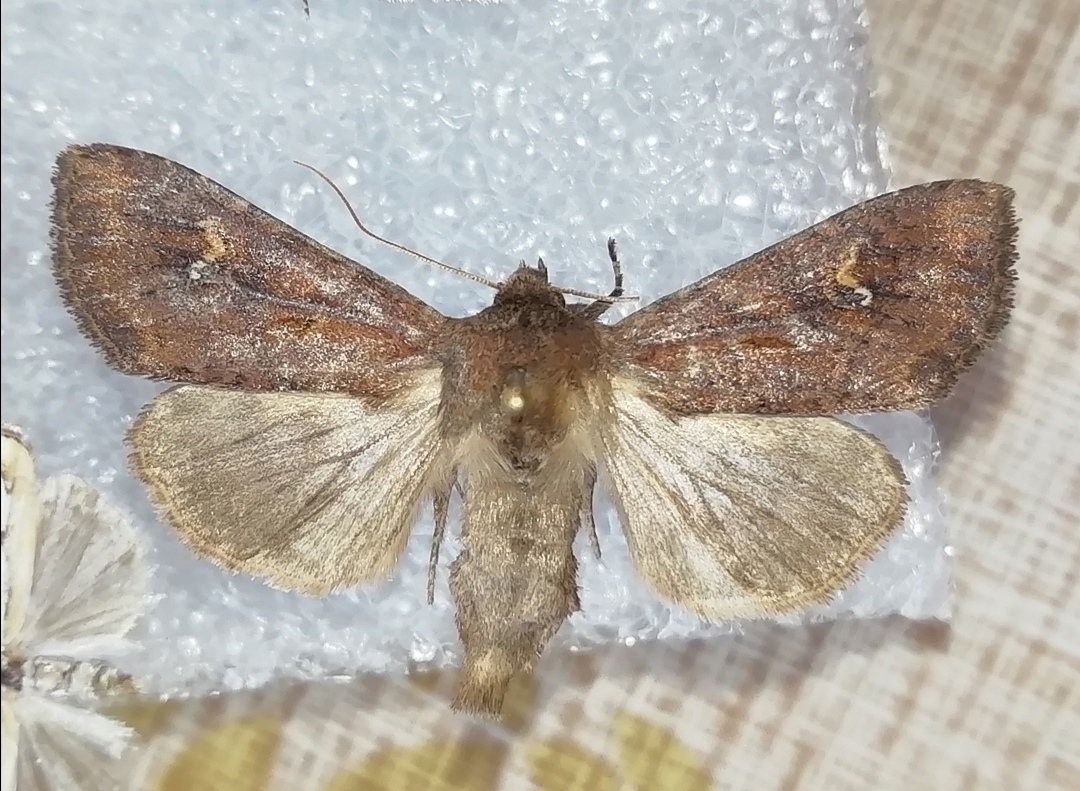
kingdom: Animalia
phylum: Arthropoda
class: Insecta
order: Lepidoptera
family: Noctuidae
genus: Apamea
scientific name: Apamea lateritia
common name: Scarce brindle
